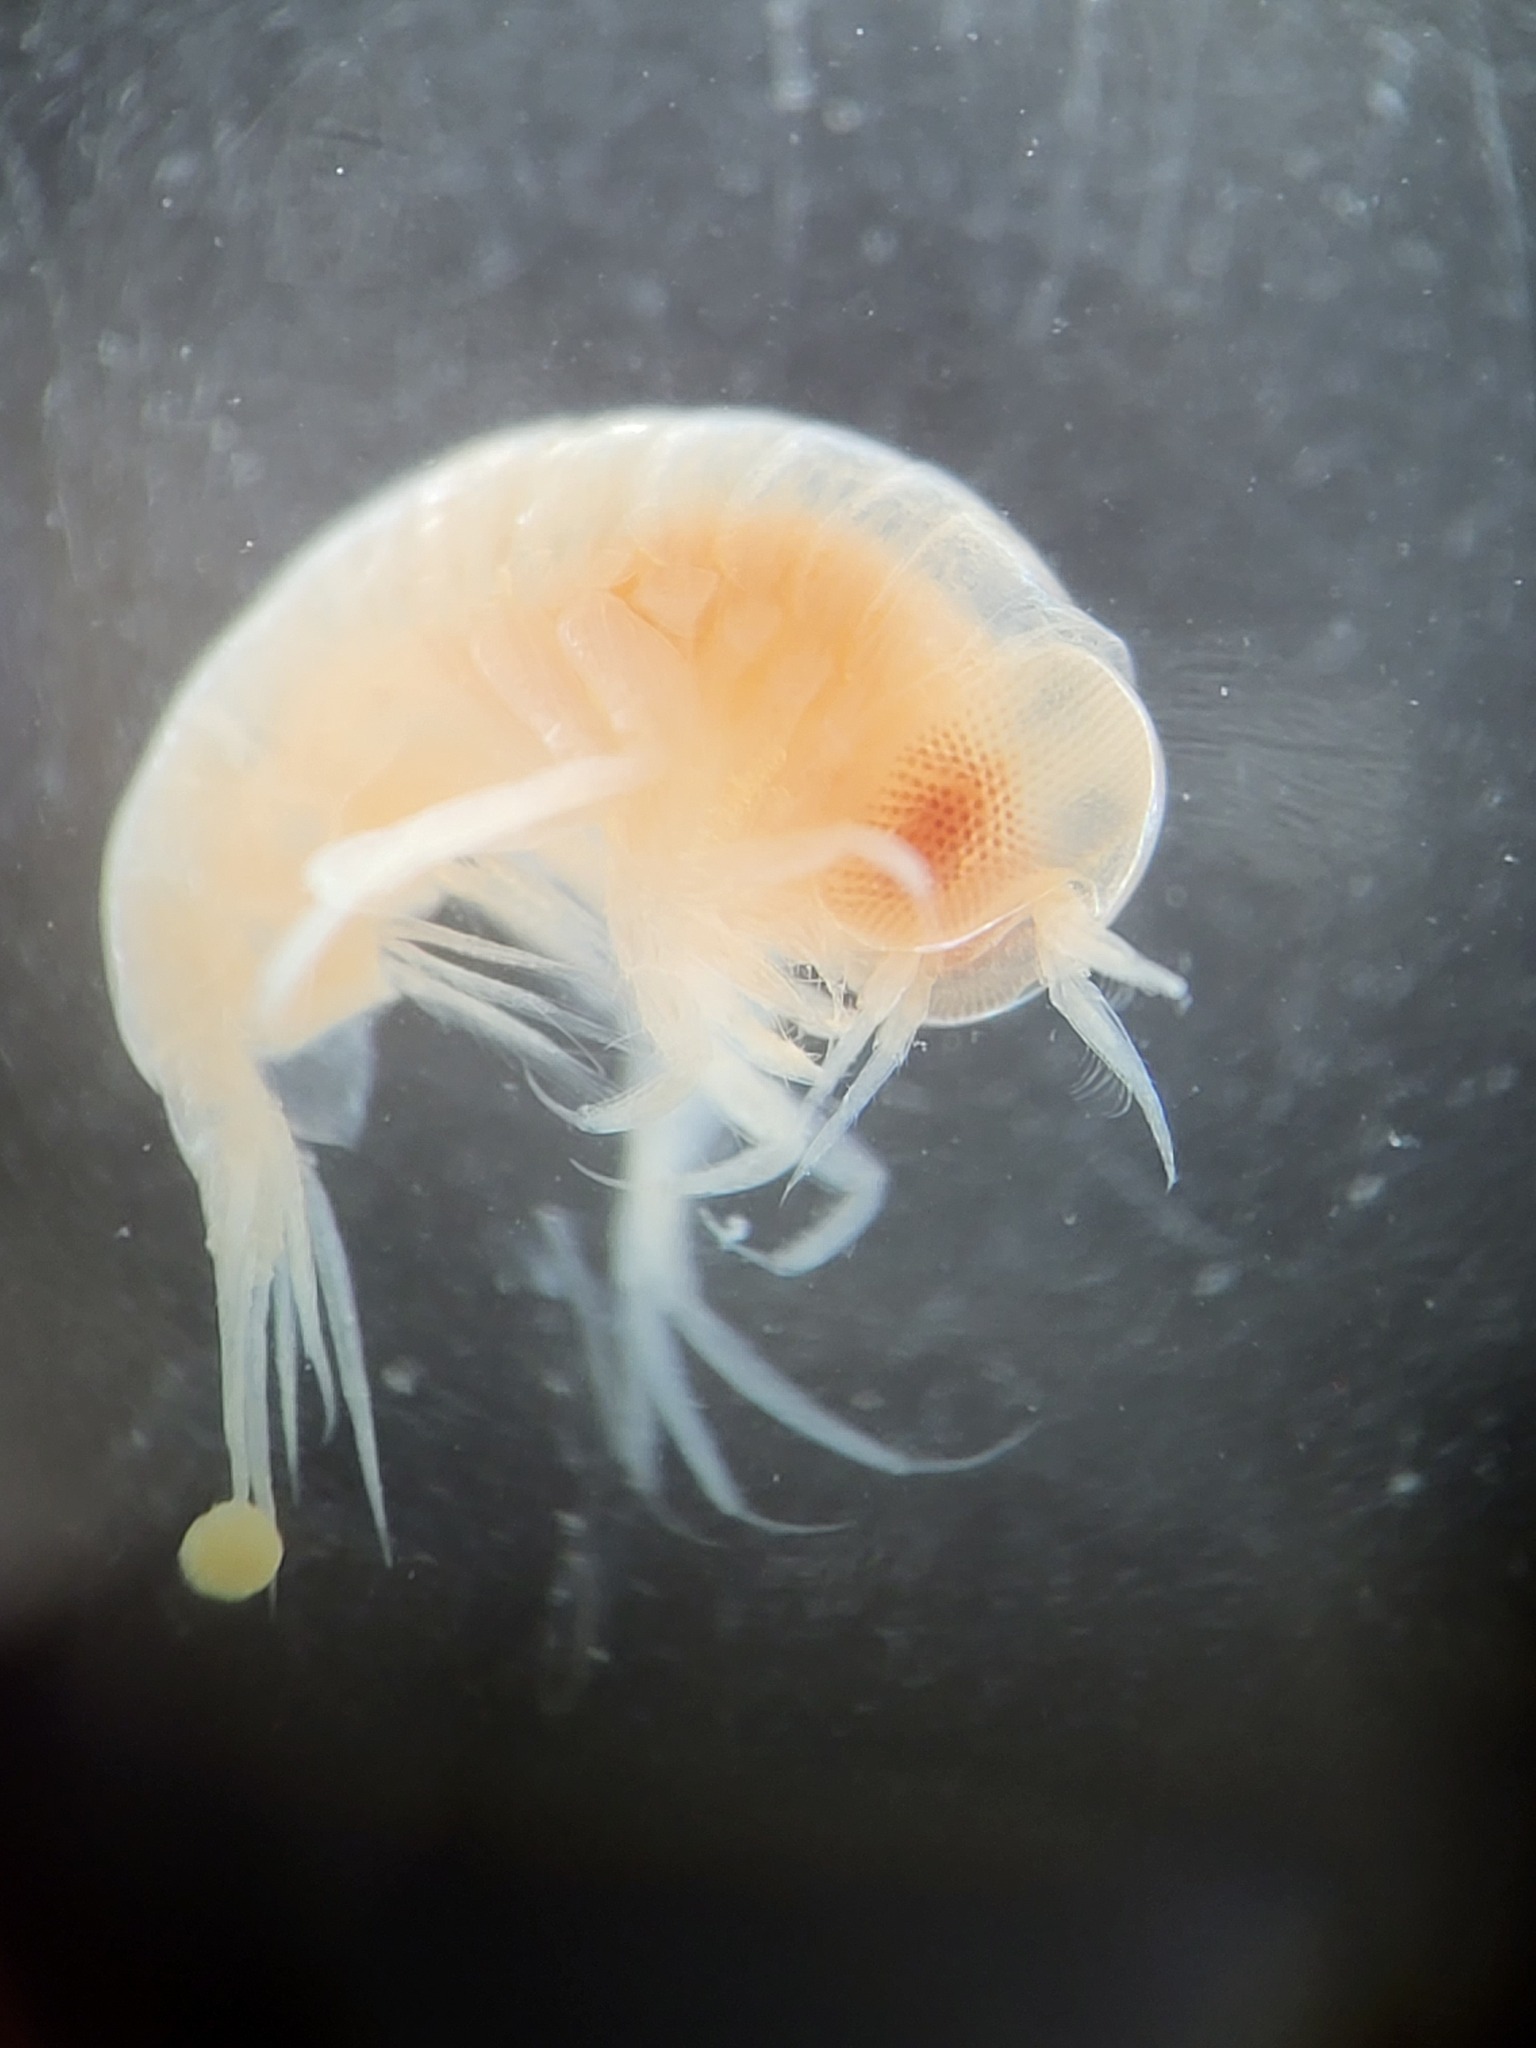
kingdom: Animalia
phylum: Arthropoda
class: Malacostraca
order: Amphipoda
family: Hyperiidae
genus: Themisto
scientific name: Themisto abyssorum
